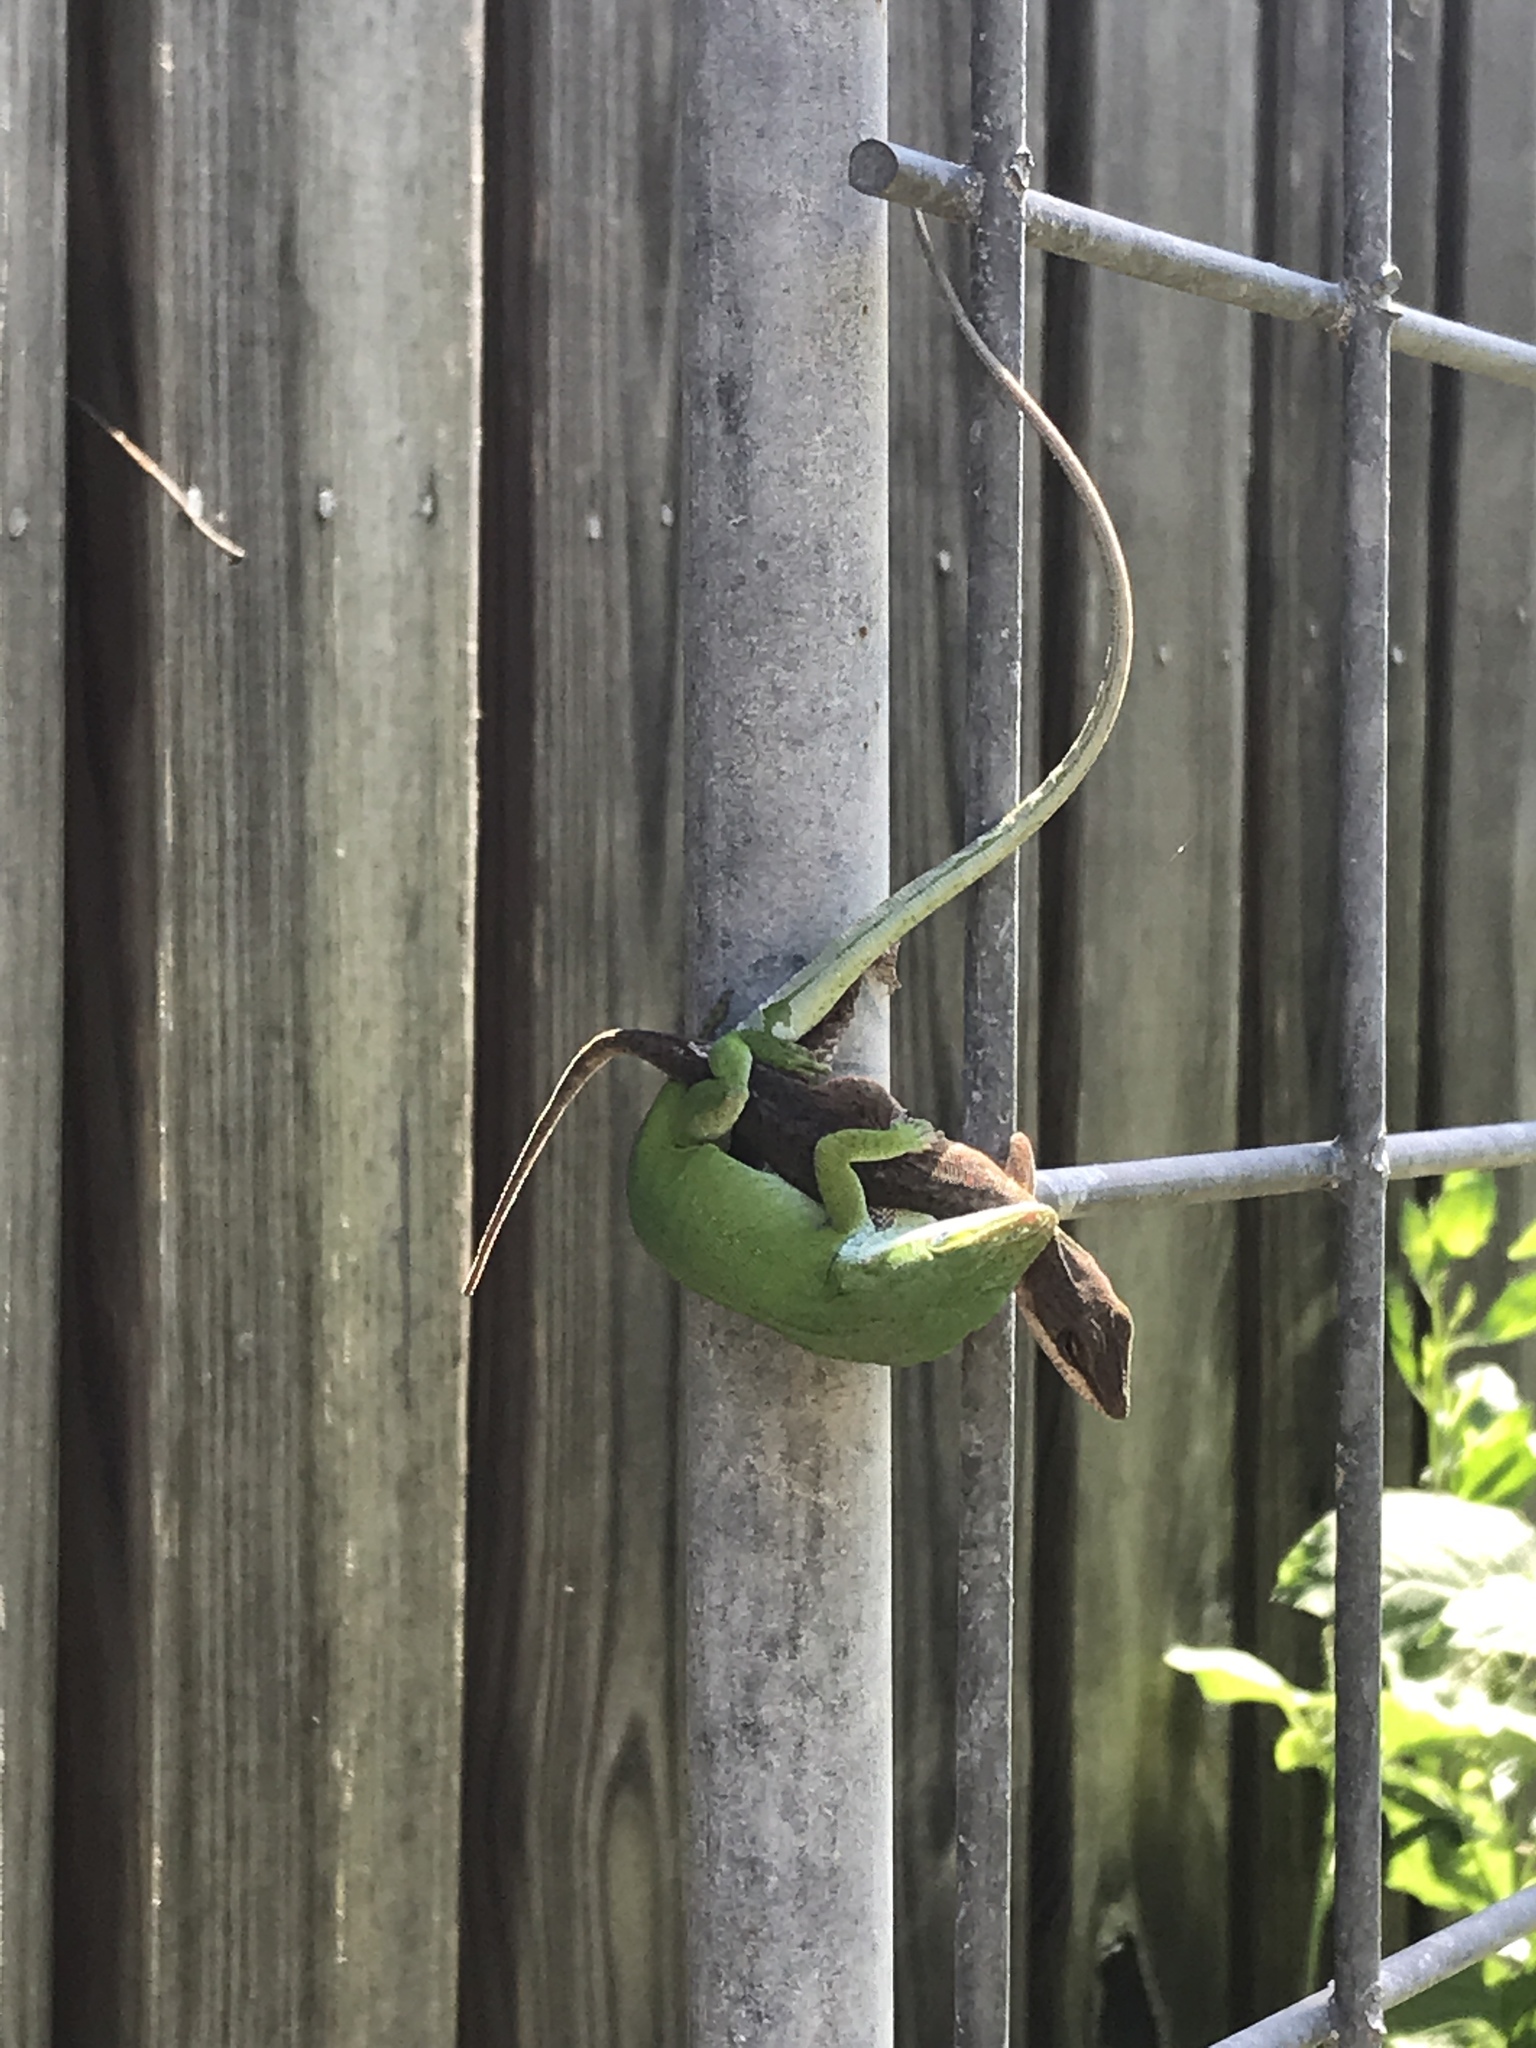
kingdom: Animalia
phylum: Chordata
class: Squamata
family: Dactyloidae
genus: Anolis
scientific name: Anolis carolinensis
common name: Green anole
